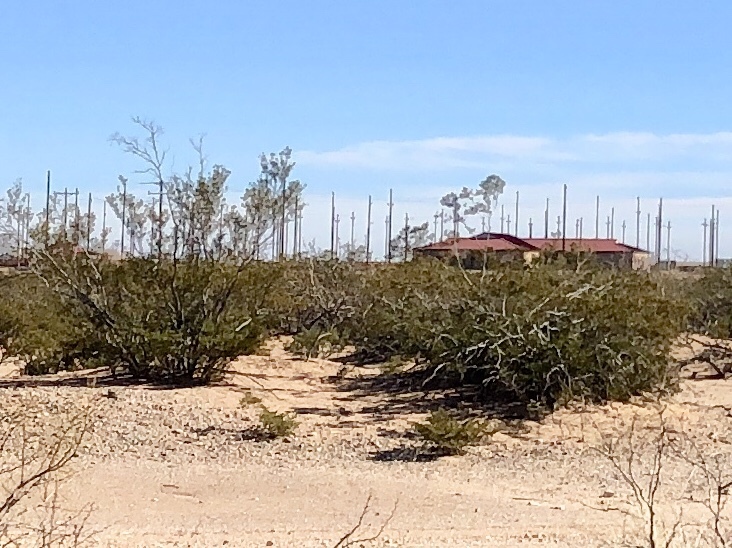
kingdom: Plantae
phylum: Tracheophyta
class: Magnoliopsida
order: Zygophyllales
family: Zygophyllaceae
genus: Larrea
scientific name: Larrea tridentata
